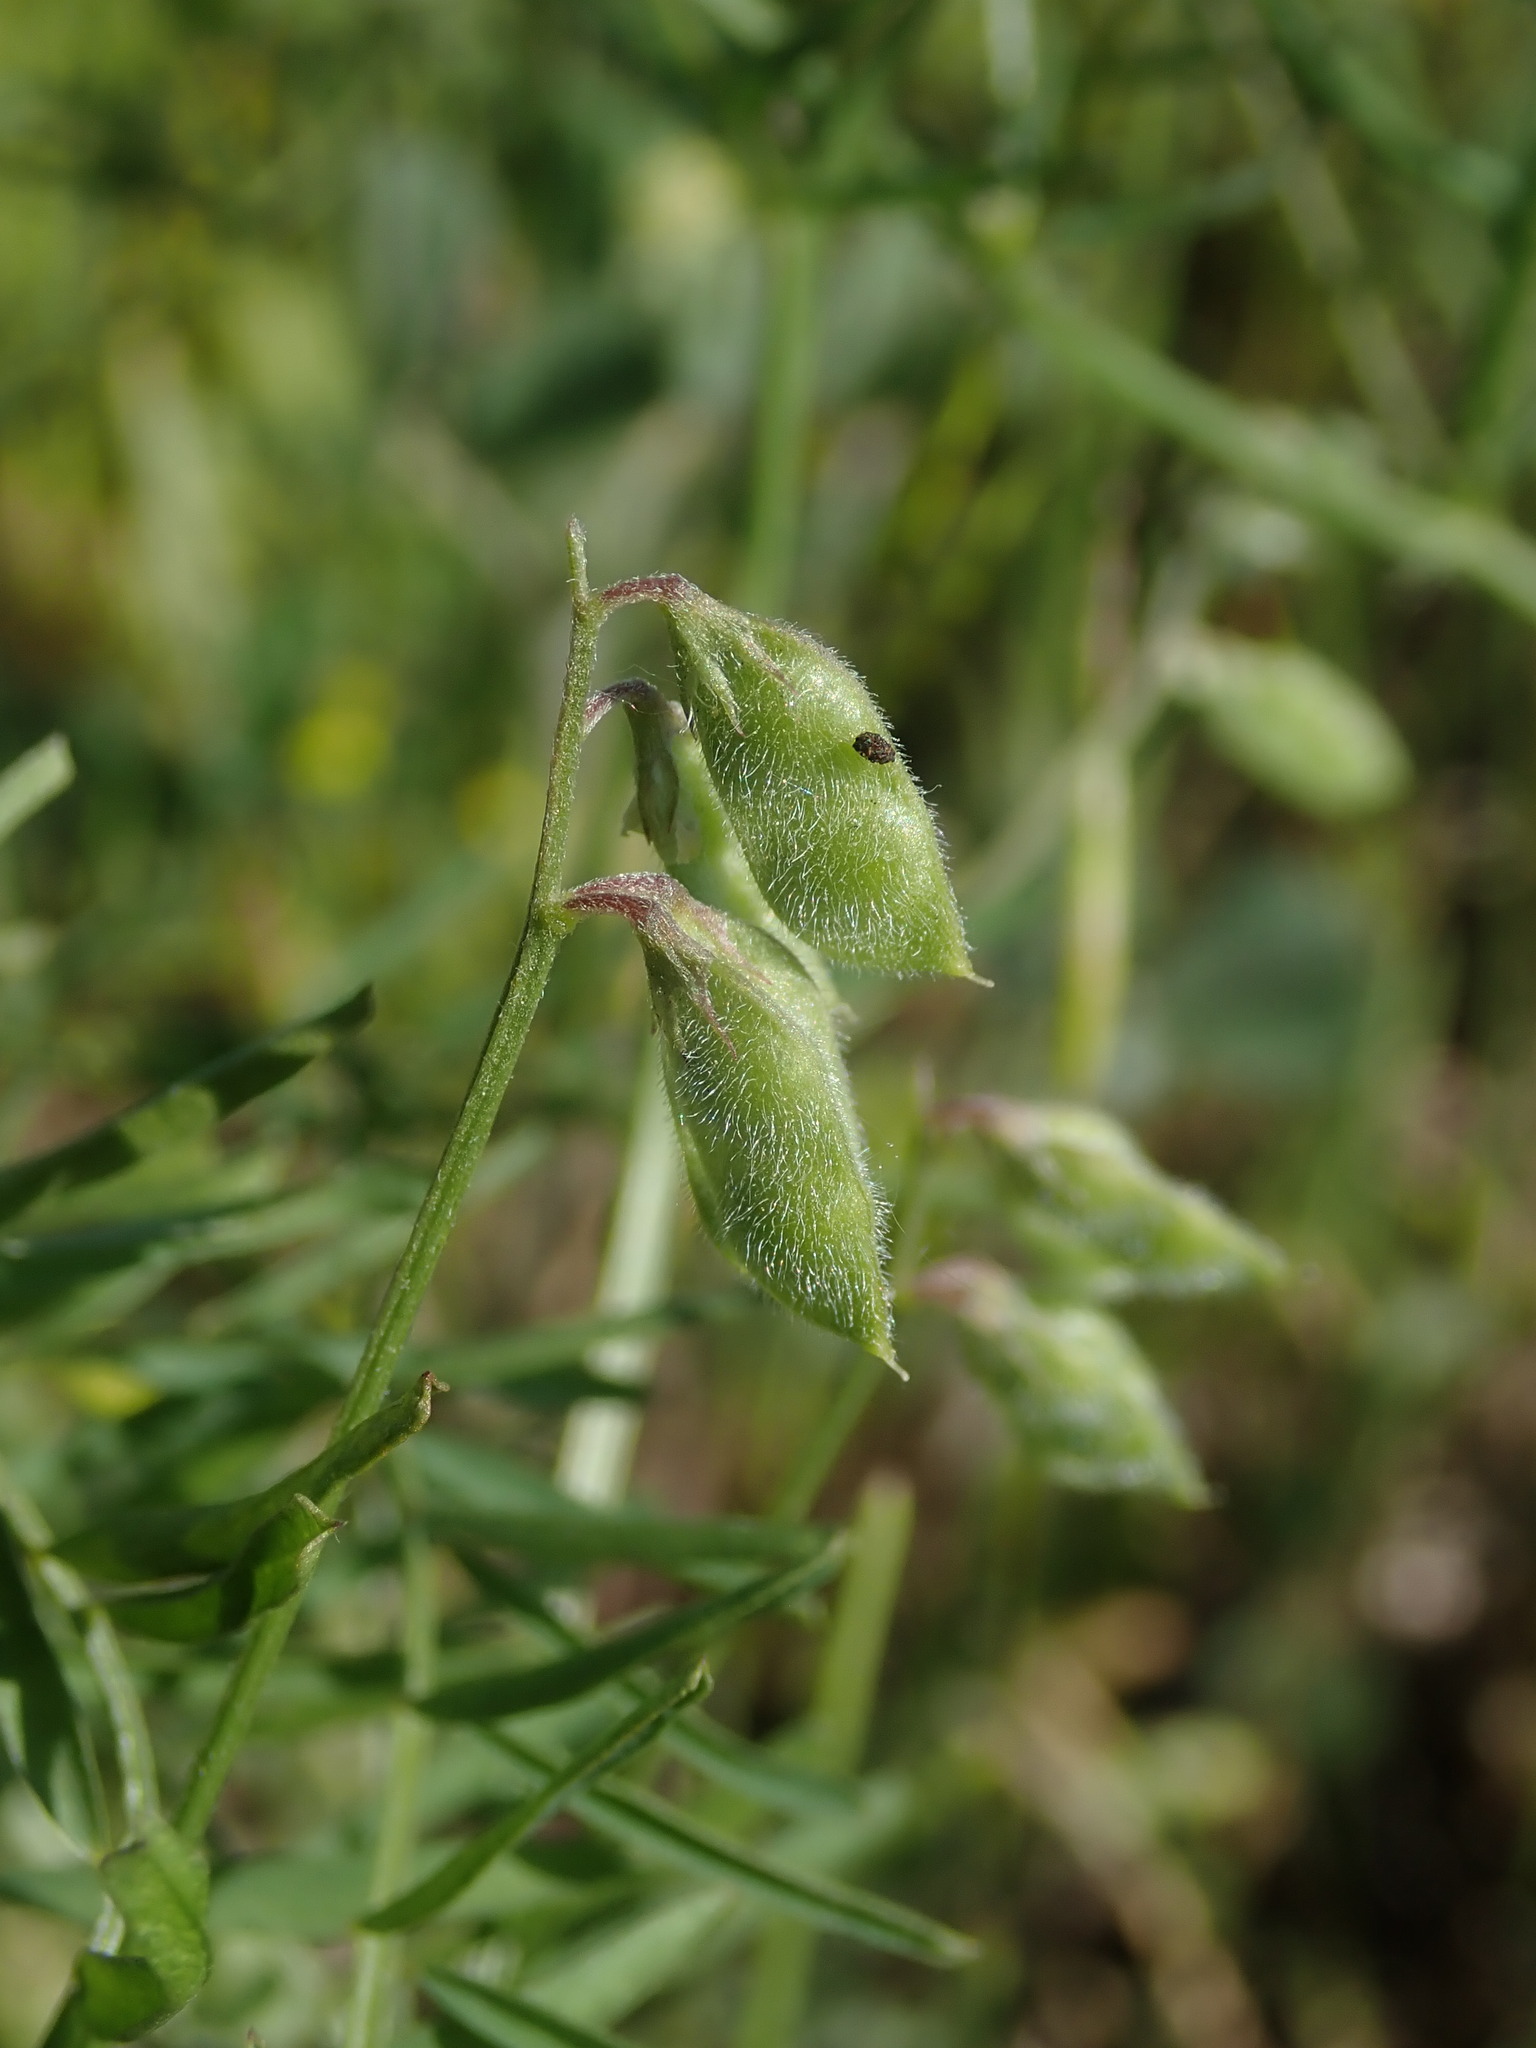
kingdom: Plantae
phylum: Tracheophyta
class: Magnoliopsida
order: Fabales
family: Fabaceae
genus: Vicia
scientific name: Vicia hirsuta
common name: Tiny vetch
